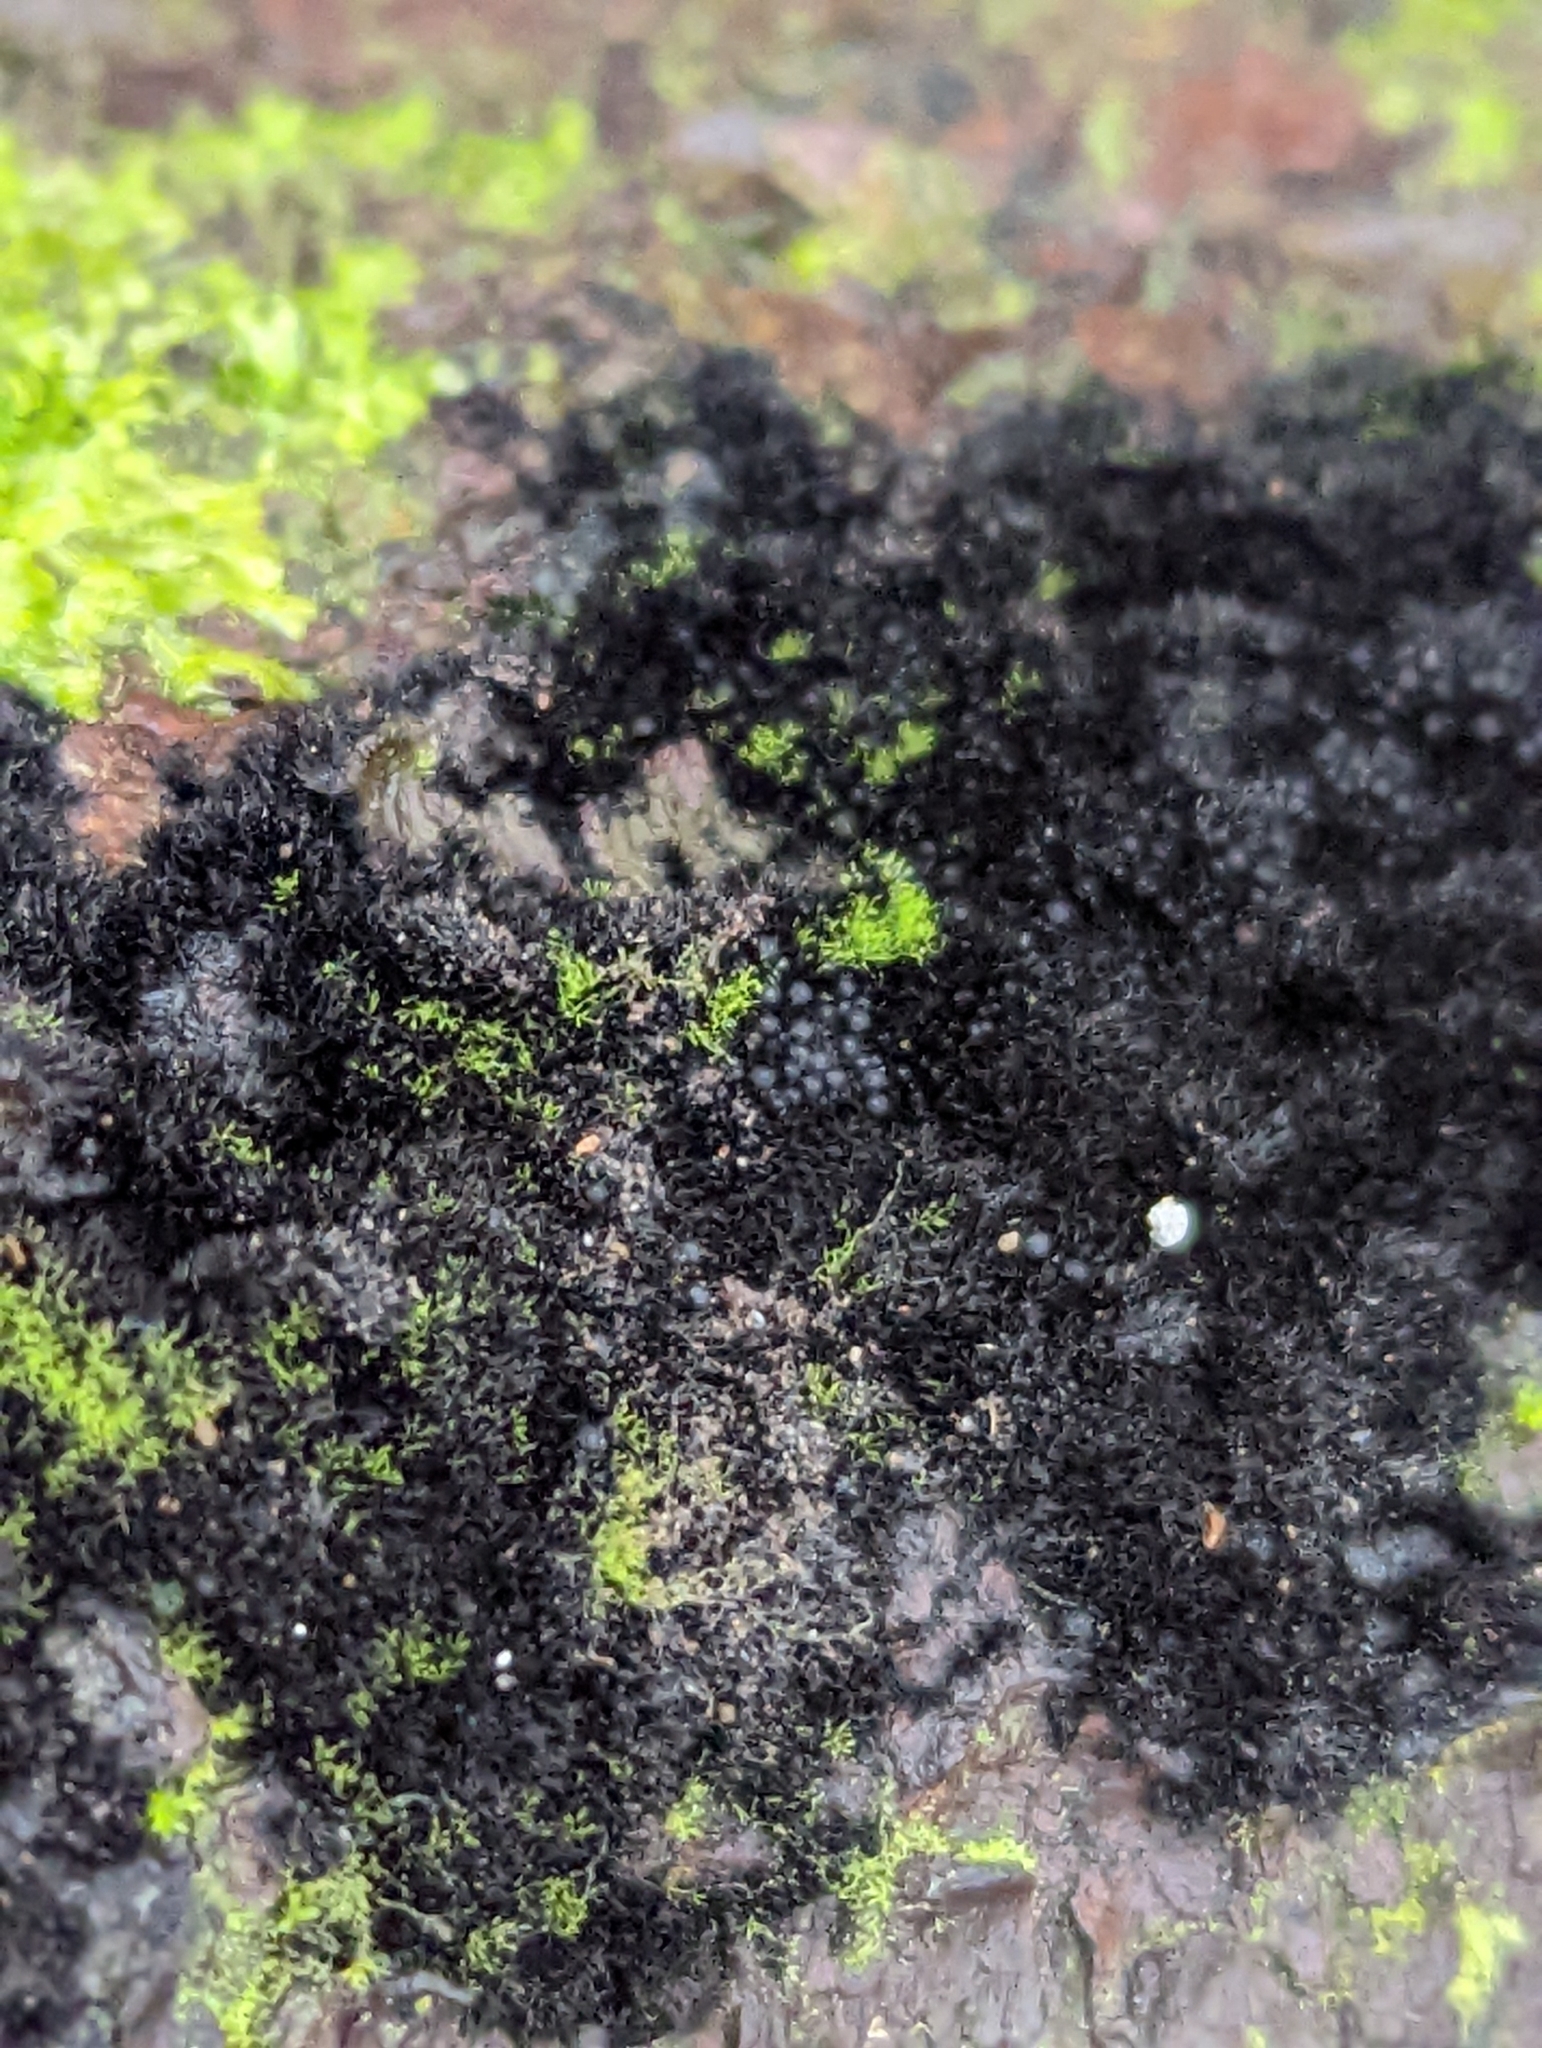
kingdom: Fungi
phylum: Ascomycota
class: Sordariomycetes
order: Coronophorales
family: Chaetosphaerellaceae
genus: Chaetosphaerella
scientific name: Chaetosphaerella phaeostroma
